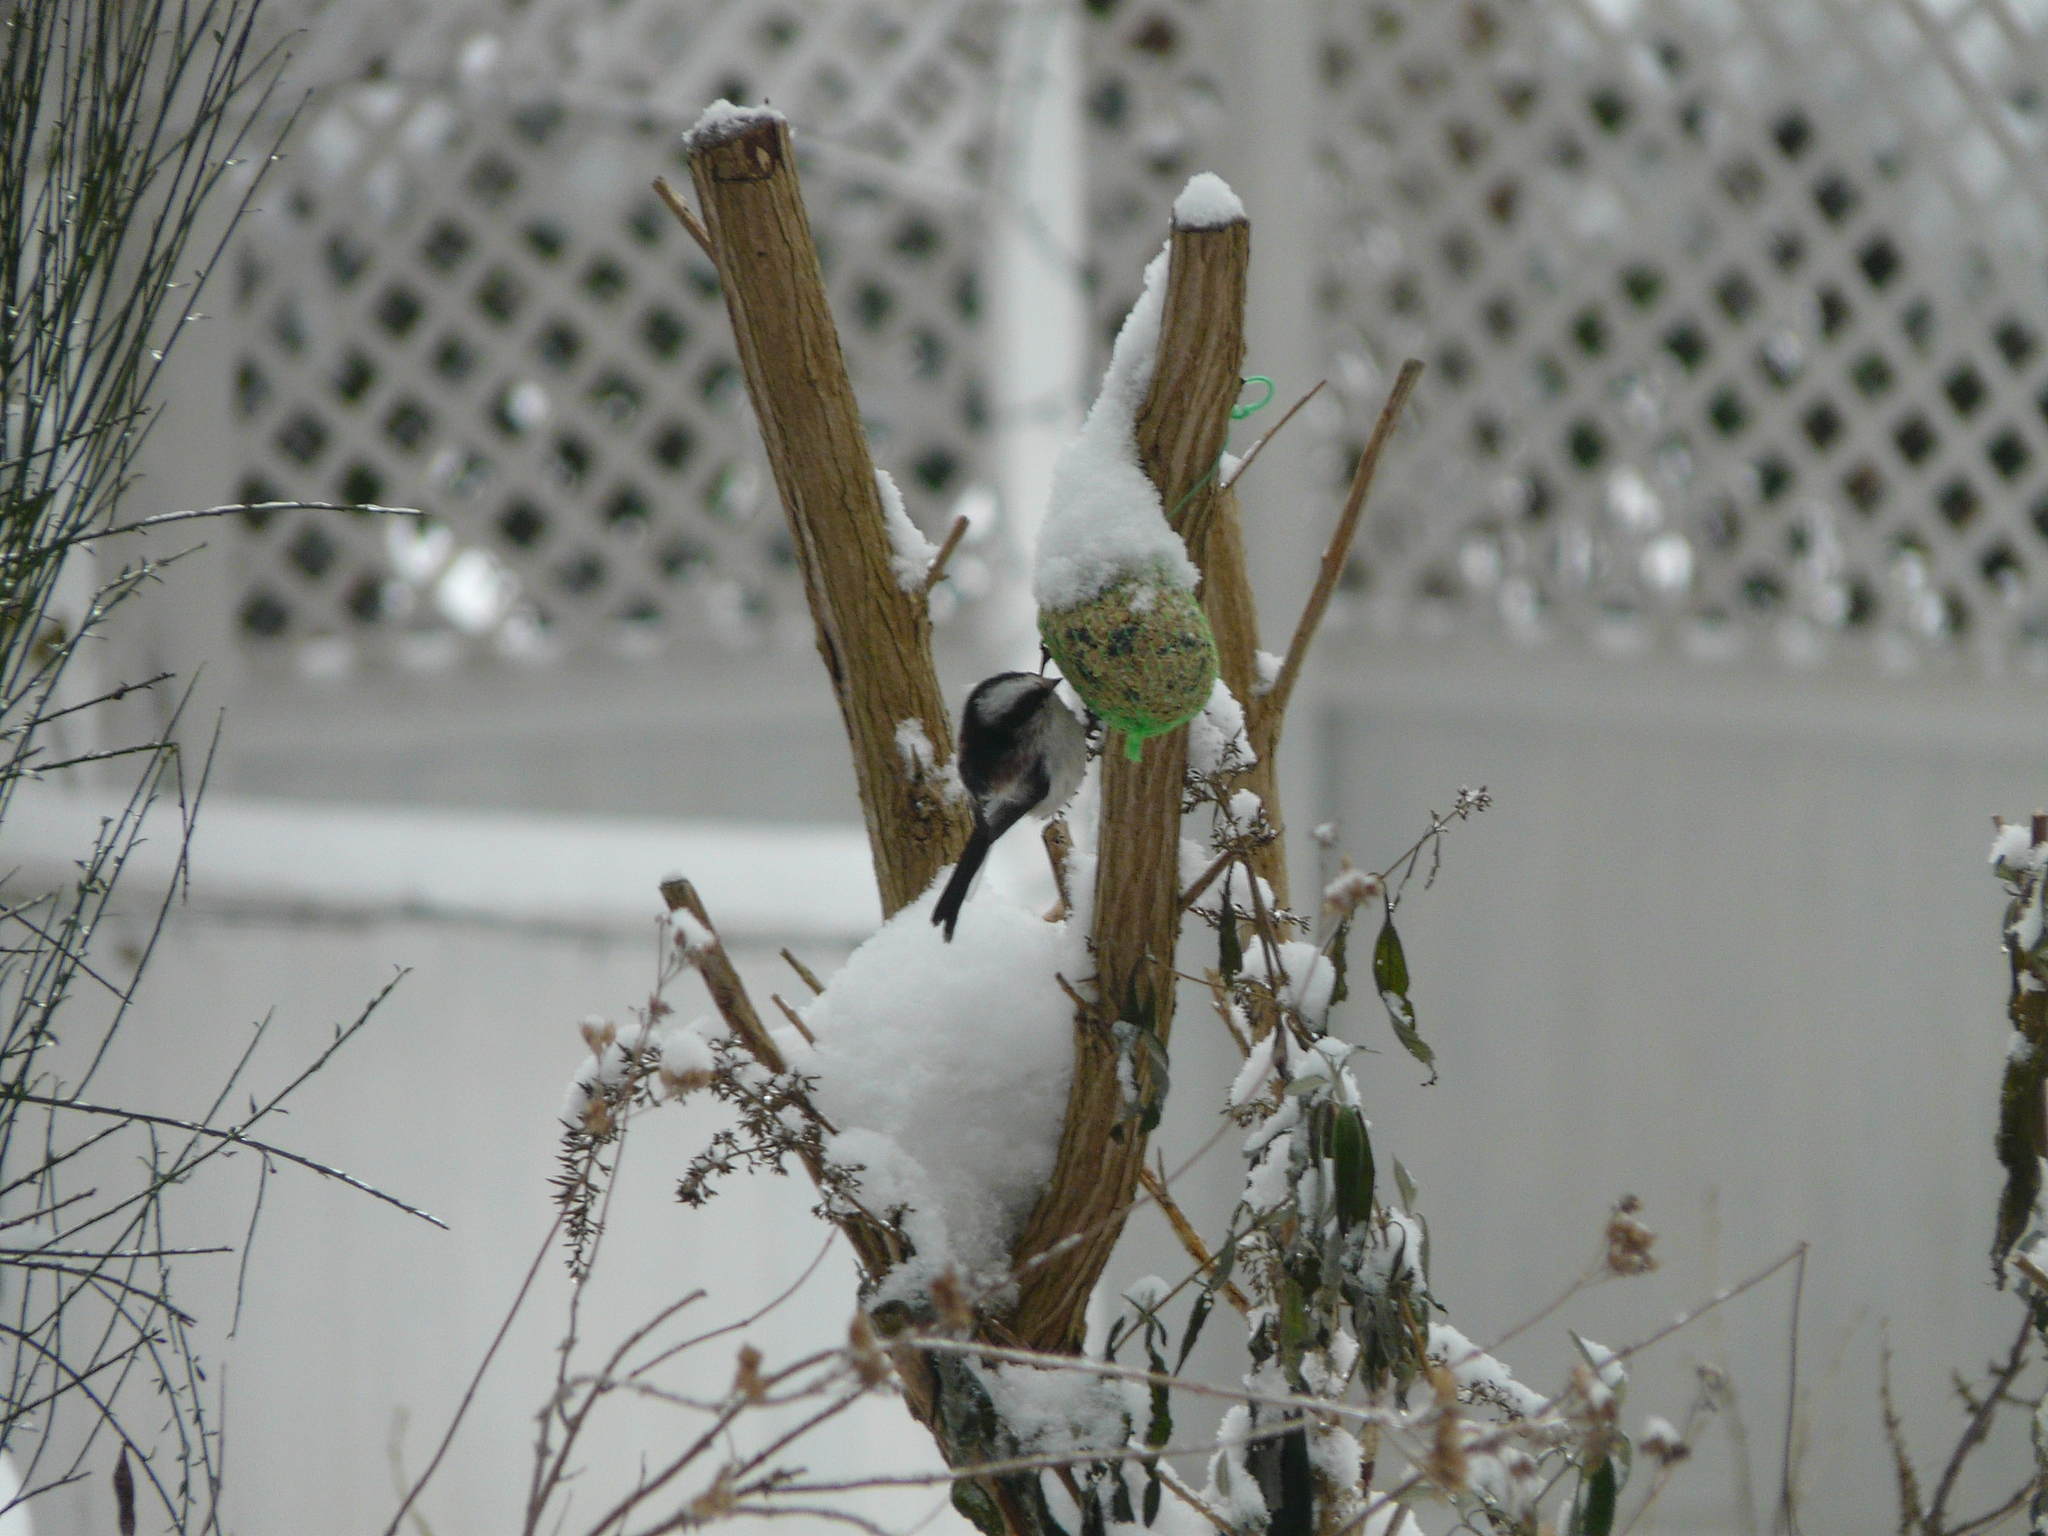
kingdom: Animalia
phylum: Chordata
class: Aves
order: Passeriformes
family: Aegithalidae
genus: Aegithalos
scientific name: Aegithalos caudatus
